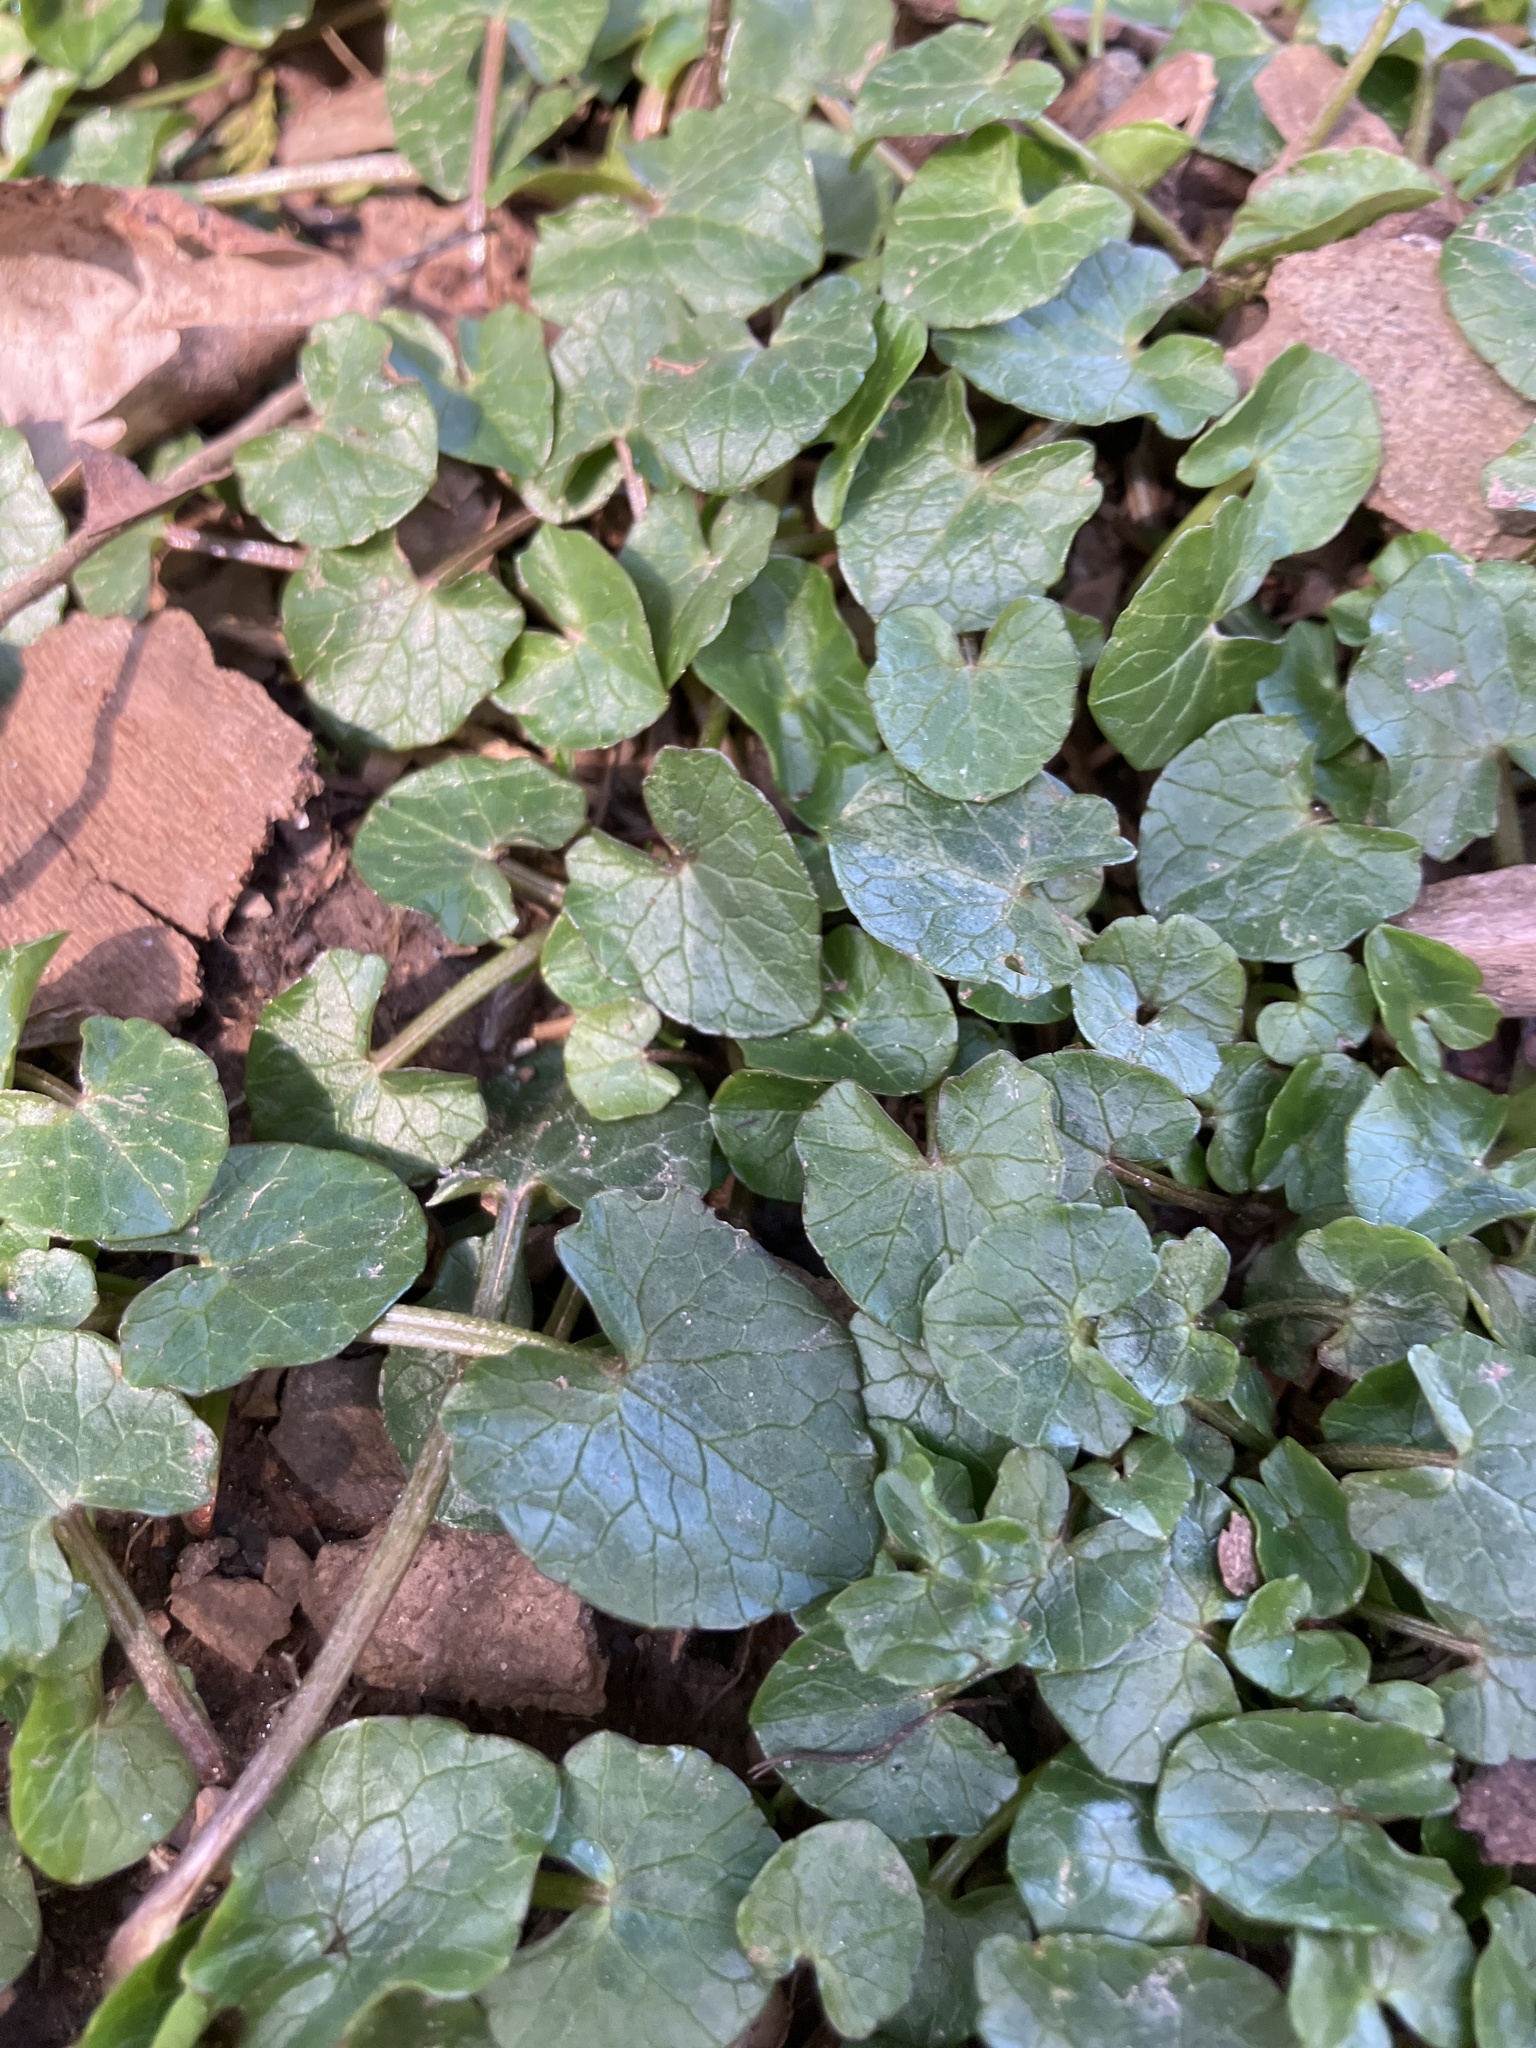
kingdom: Plantae
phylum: Tracheophyta
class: Magnoliopsida
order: Ranunculales
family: Ranunculaceae
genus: Ficaria
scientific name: Ficaria verna
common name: Lesser celandine
